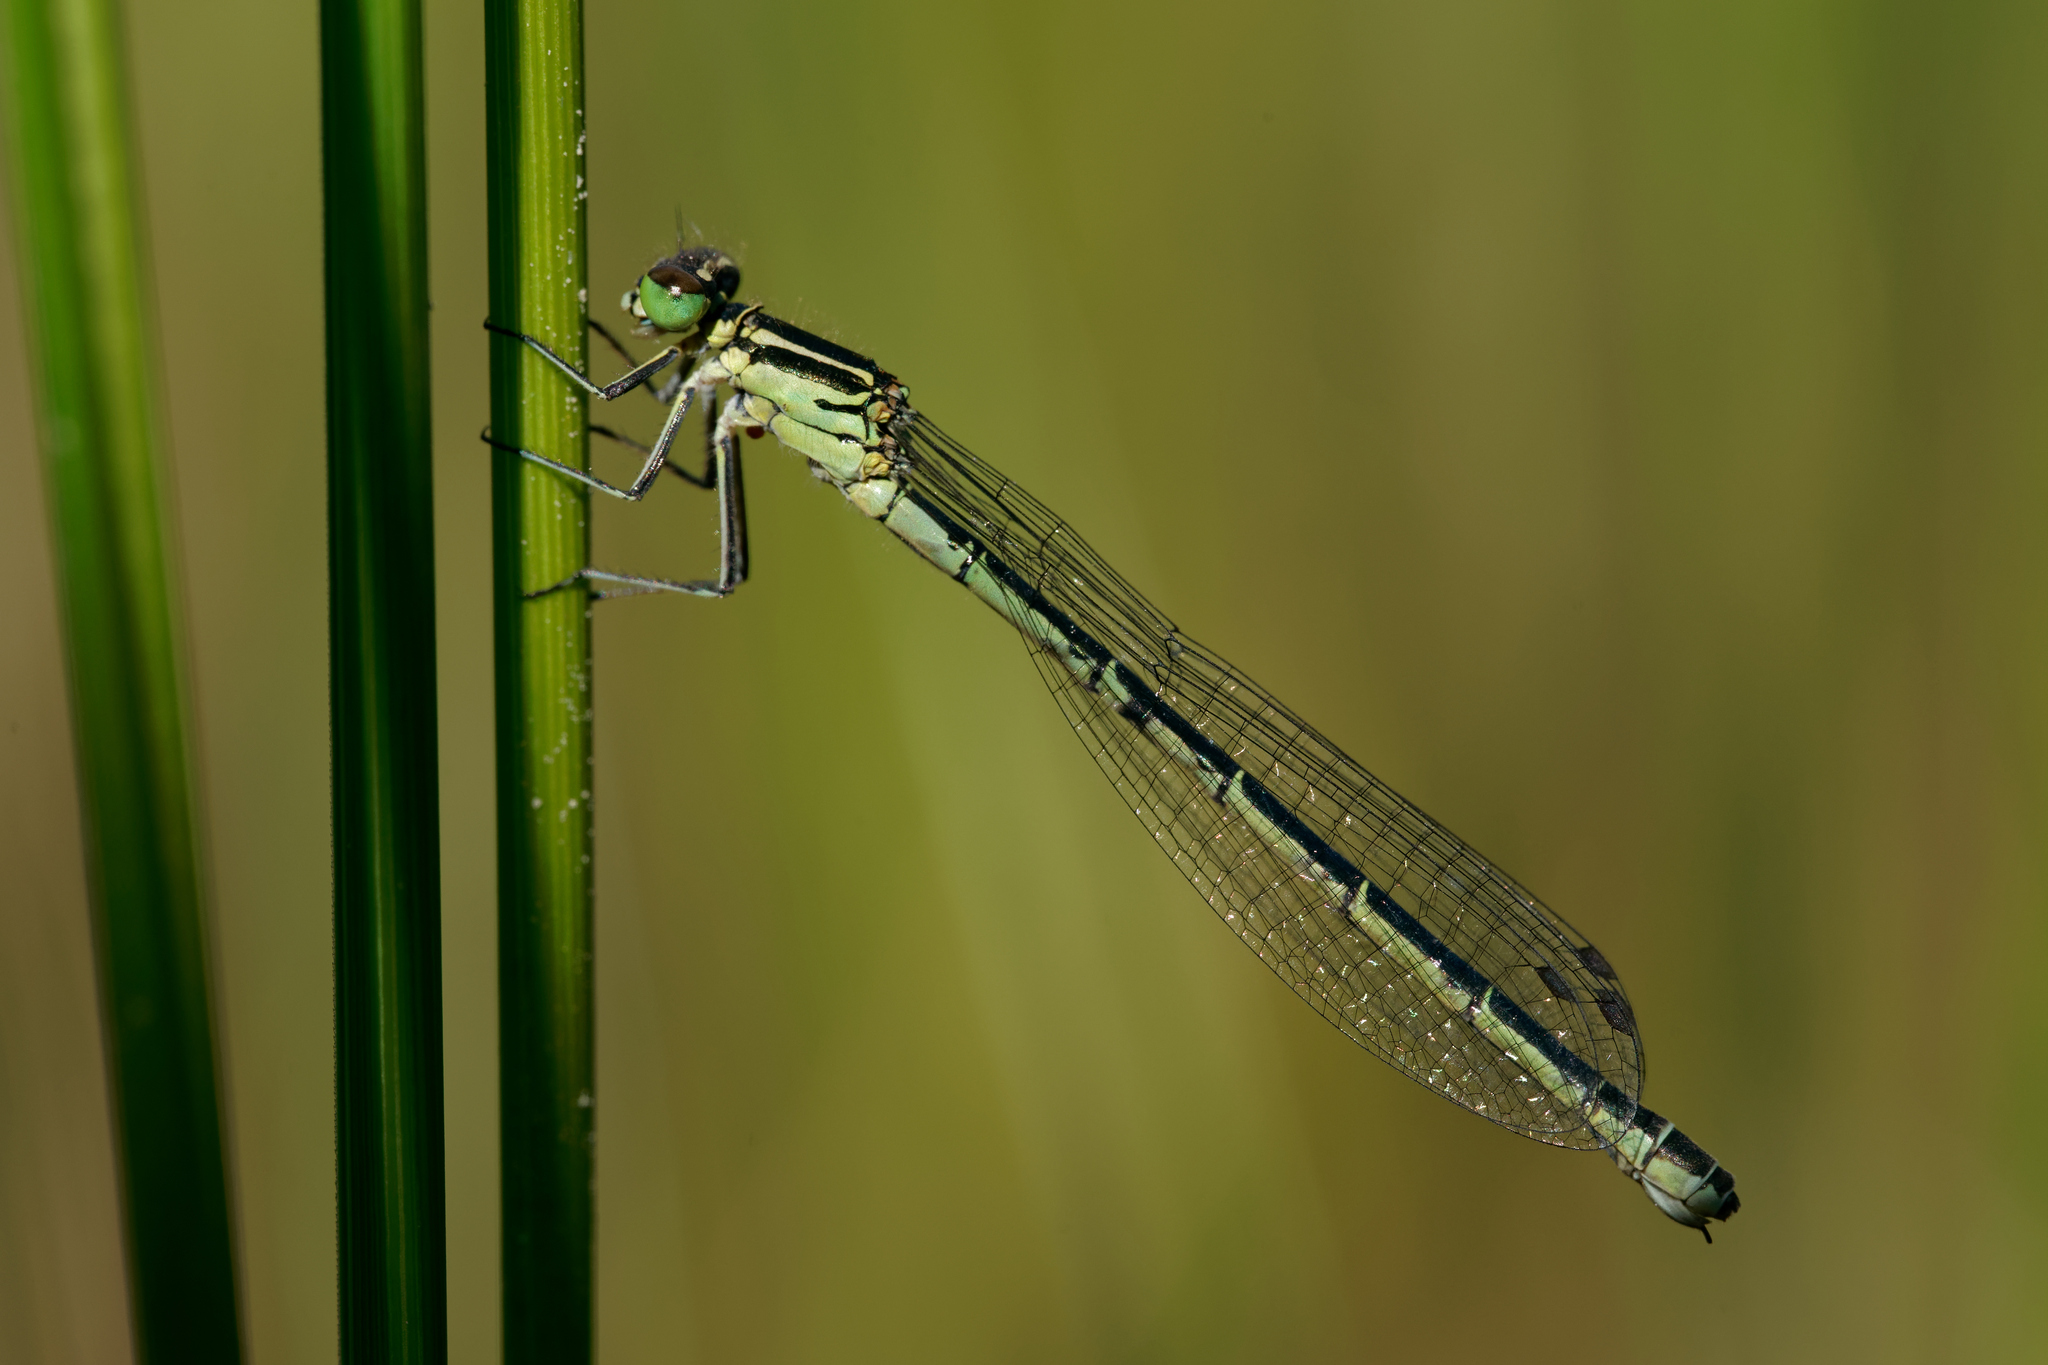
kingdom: Animalia
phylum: Arthropoda
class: Insecta
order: Odonata
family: Coenagrionidae
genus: Coenagrion
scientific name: Coenagrion hastulatum
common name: Spearhead bluet
